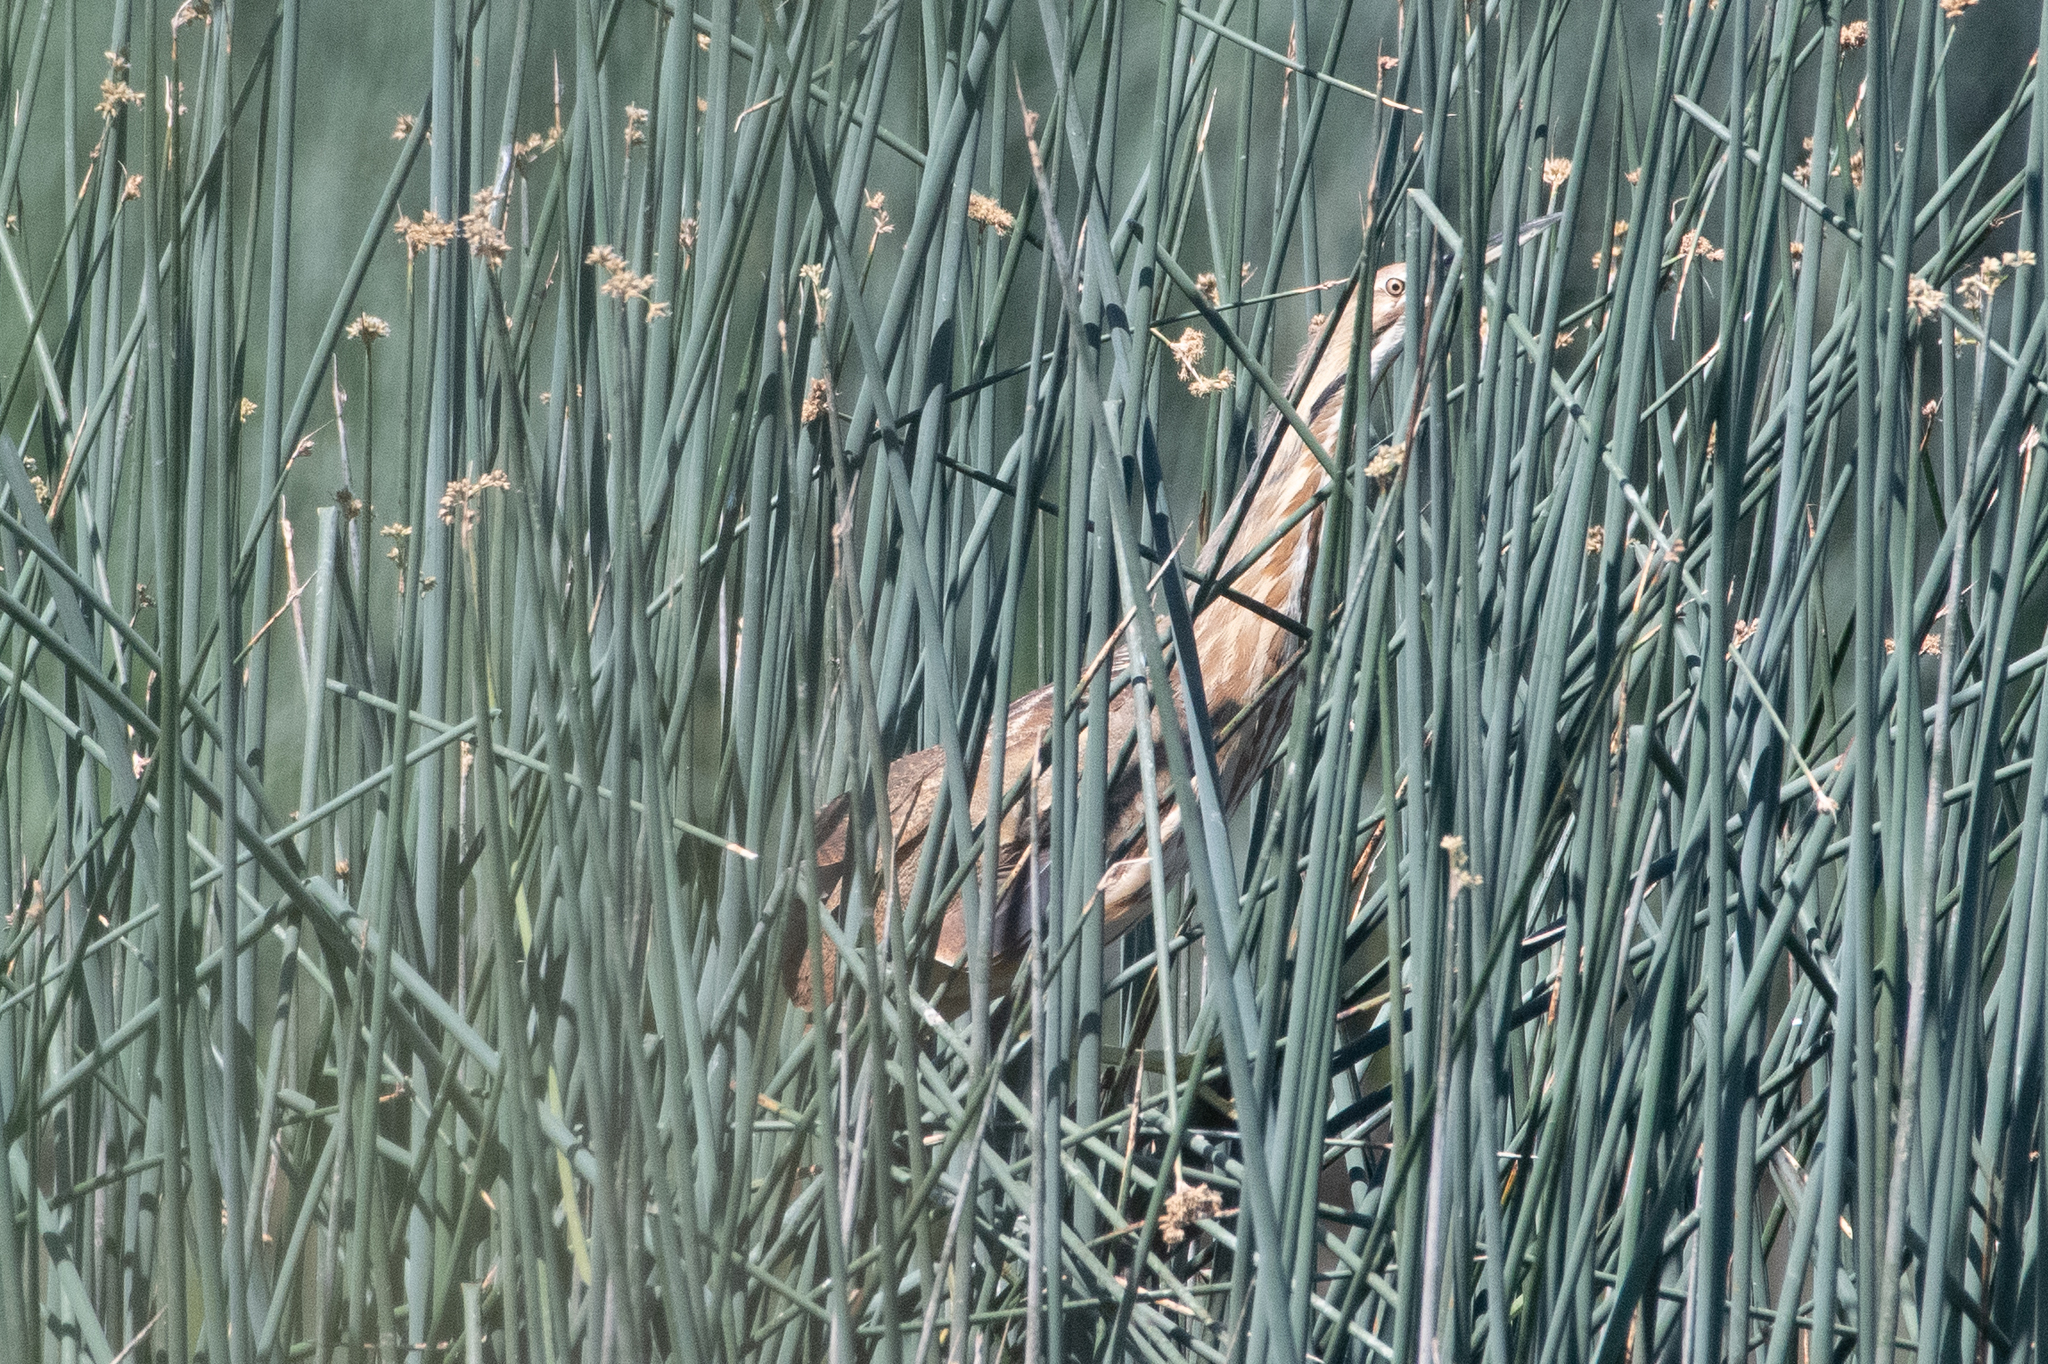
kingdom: Animalia
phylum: Chordata
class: Aves
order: Pelecaniformes
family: Ardeidae
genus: Botaurus
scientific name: Botaurus lentiginosus
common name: American bittern
